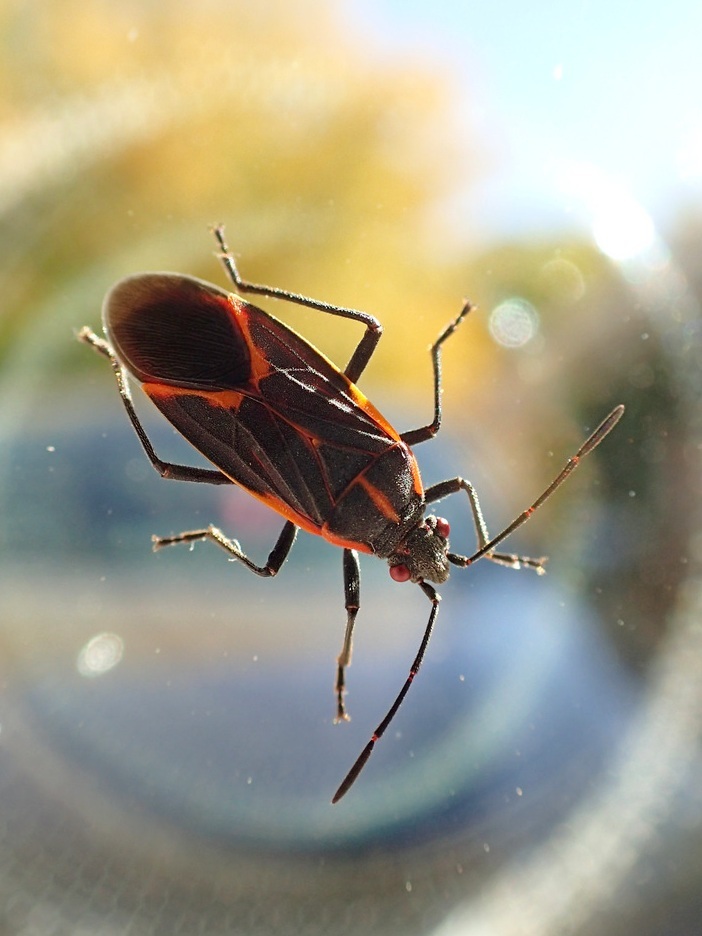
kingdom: Animalia
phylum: Arthropoda
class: Insecta
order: Hemiptera
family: Rhopalidae
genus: Boisea
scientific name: Boisea trivittata
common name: Boxelder bug
